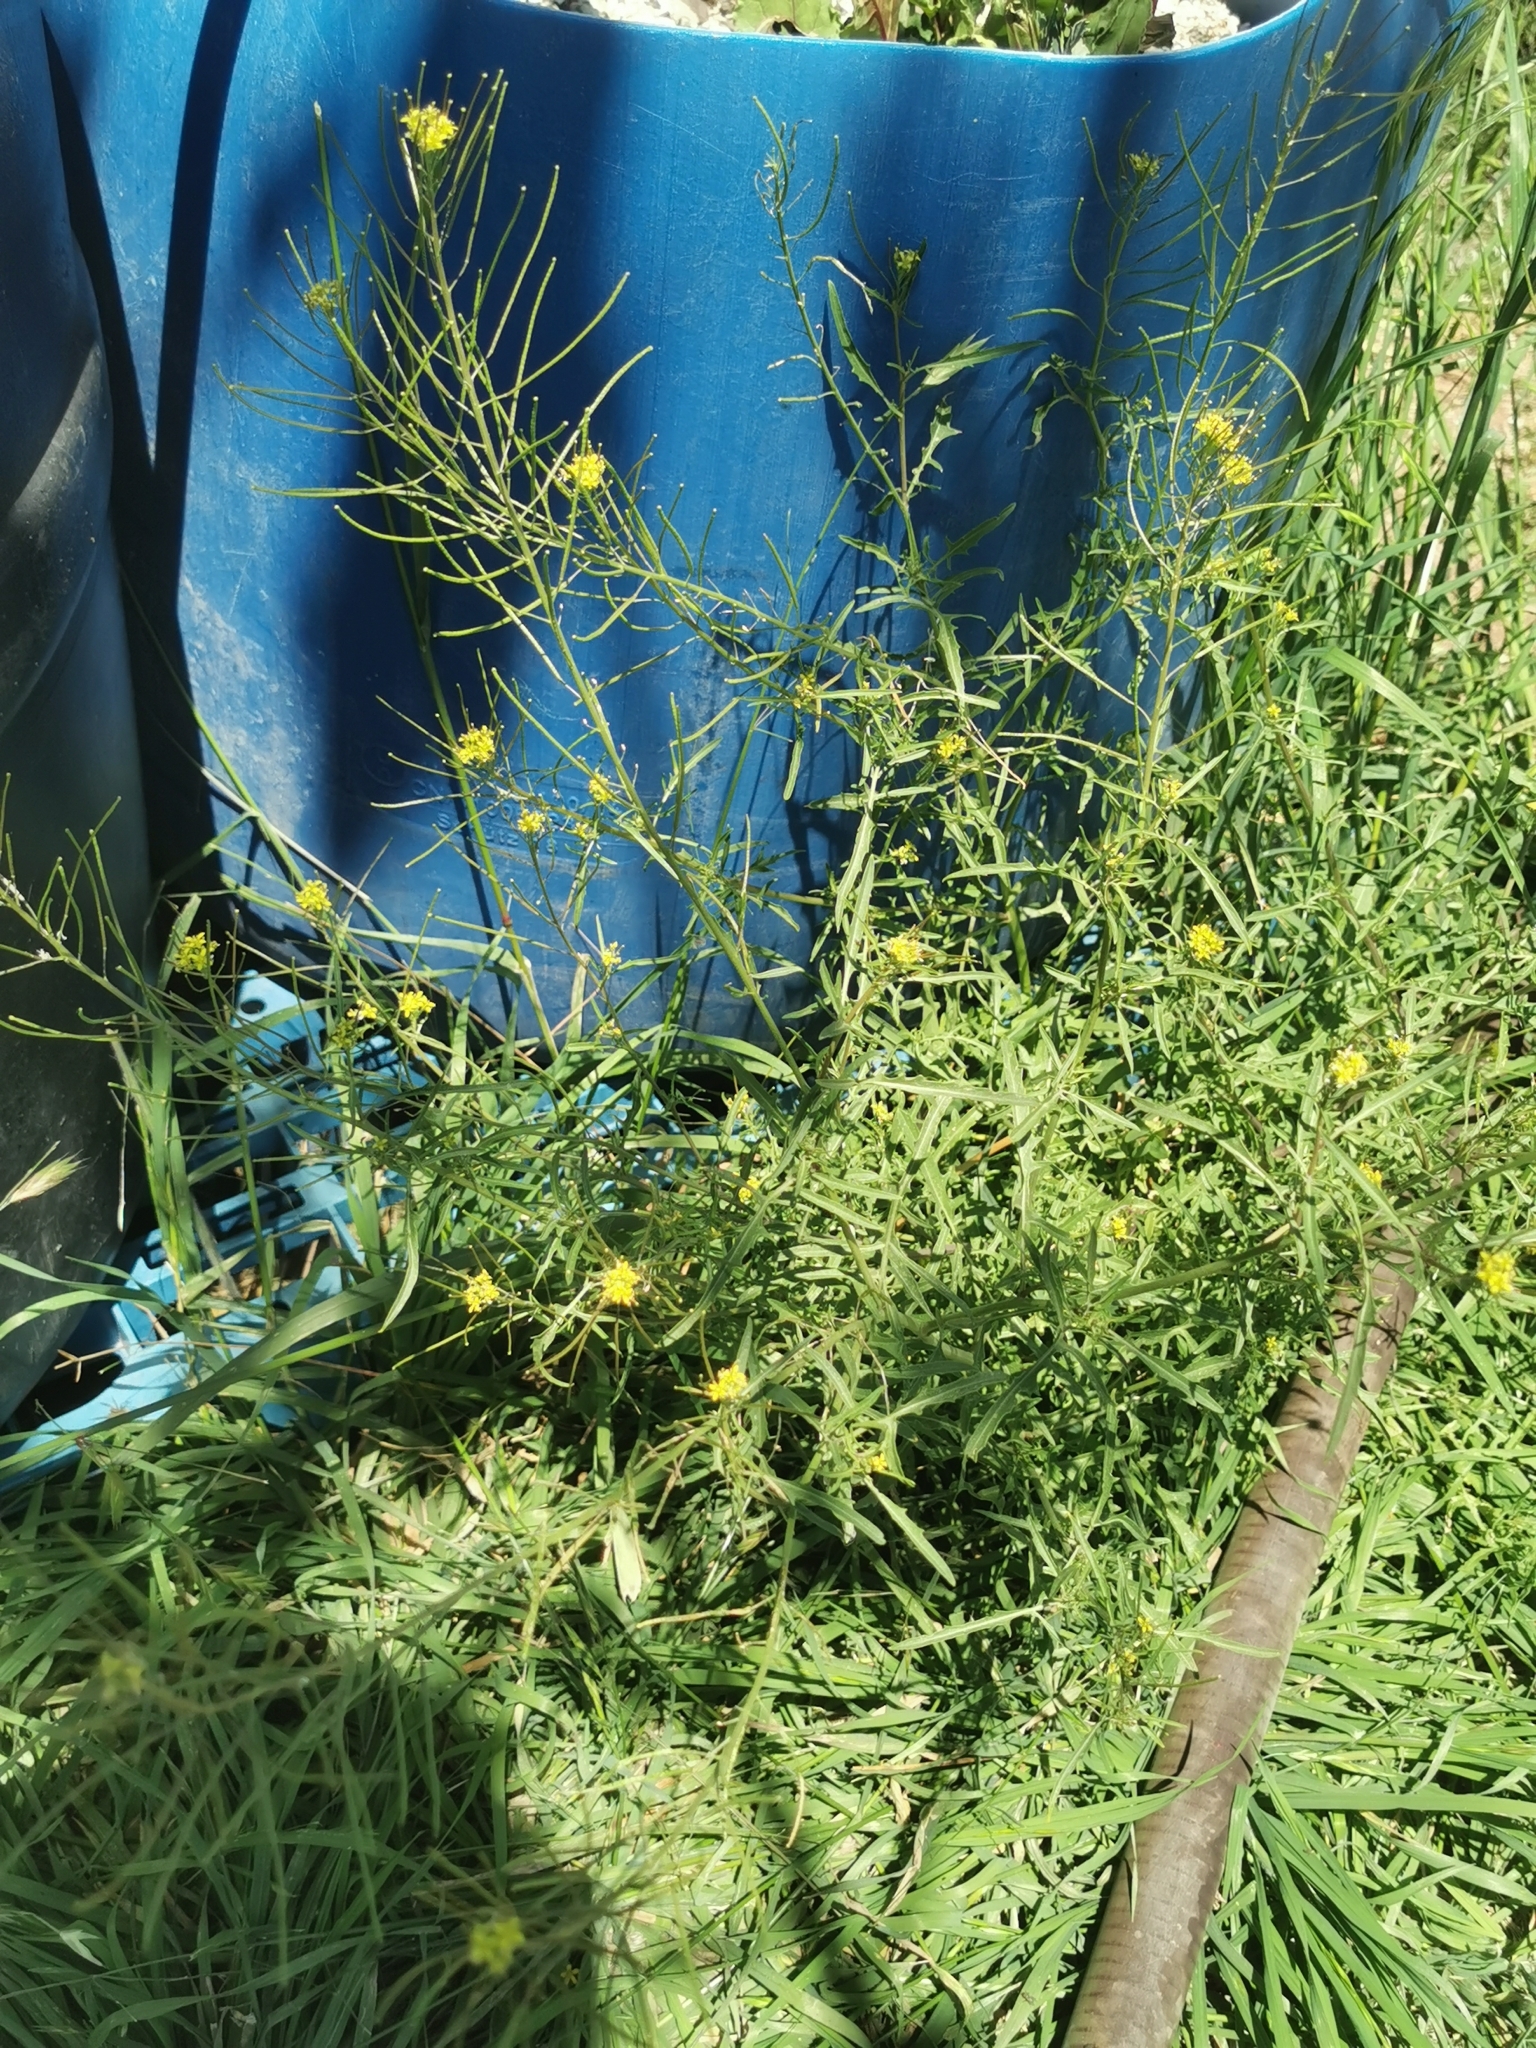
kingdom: Plantae
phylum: Tracheophyta
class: Magnoliopsida
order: Brassicales
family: Brassicaceae
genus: Sisymbrium
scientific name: Sisymbrium irio
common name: London rocket
